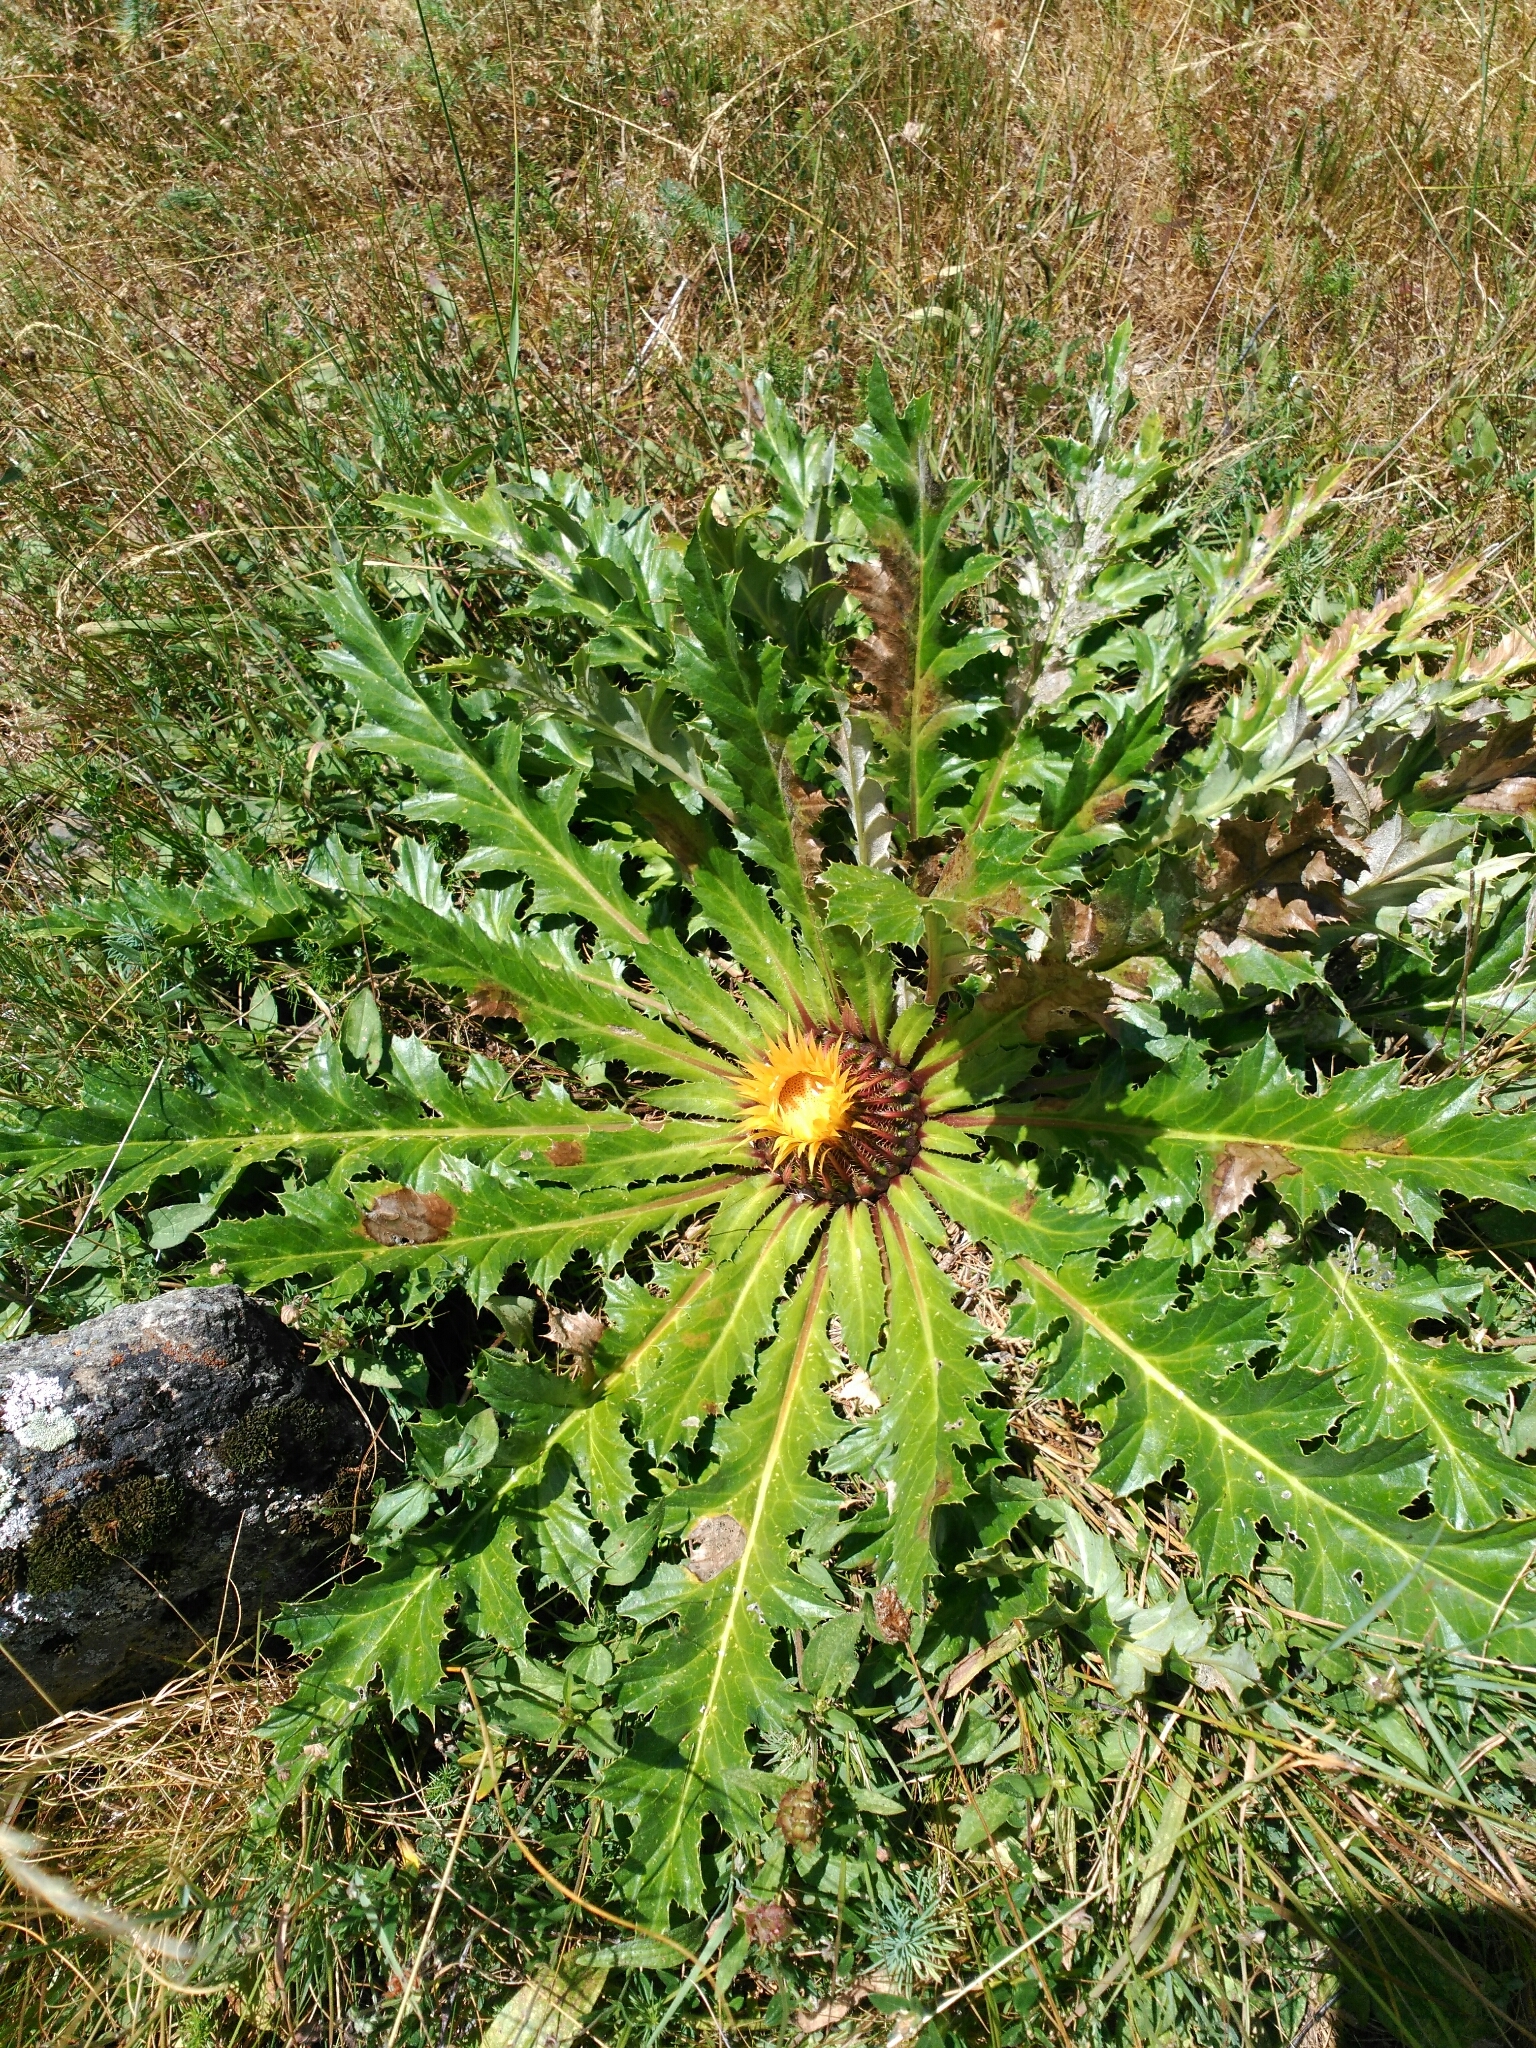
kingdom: Plantae
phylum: Tracheophyta
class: Magnoliopsida
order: Asterales
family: Asteraceae
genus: Carlina
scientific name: Carlina acanthifolia
